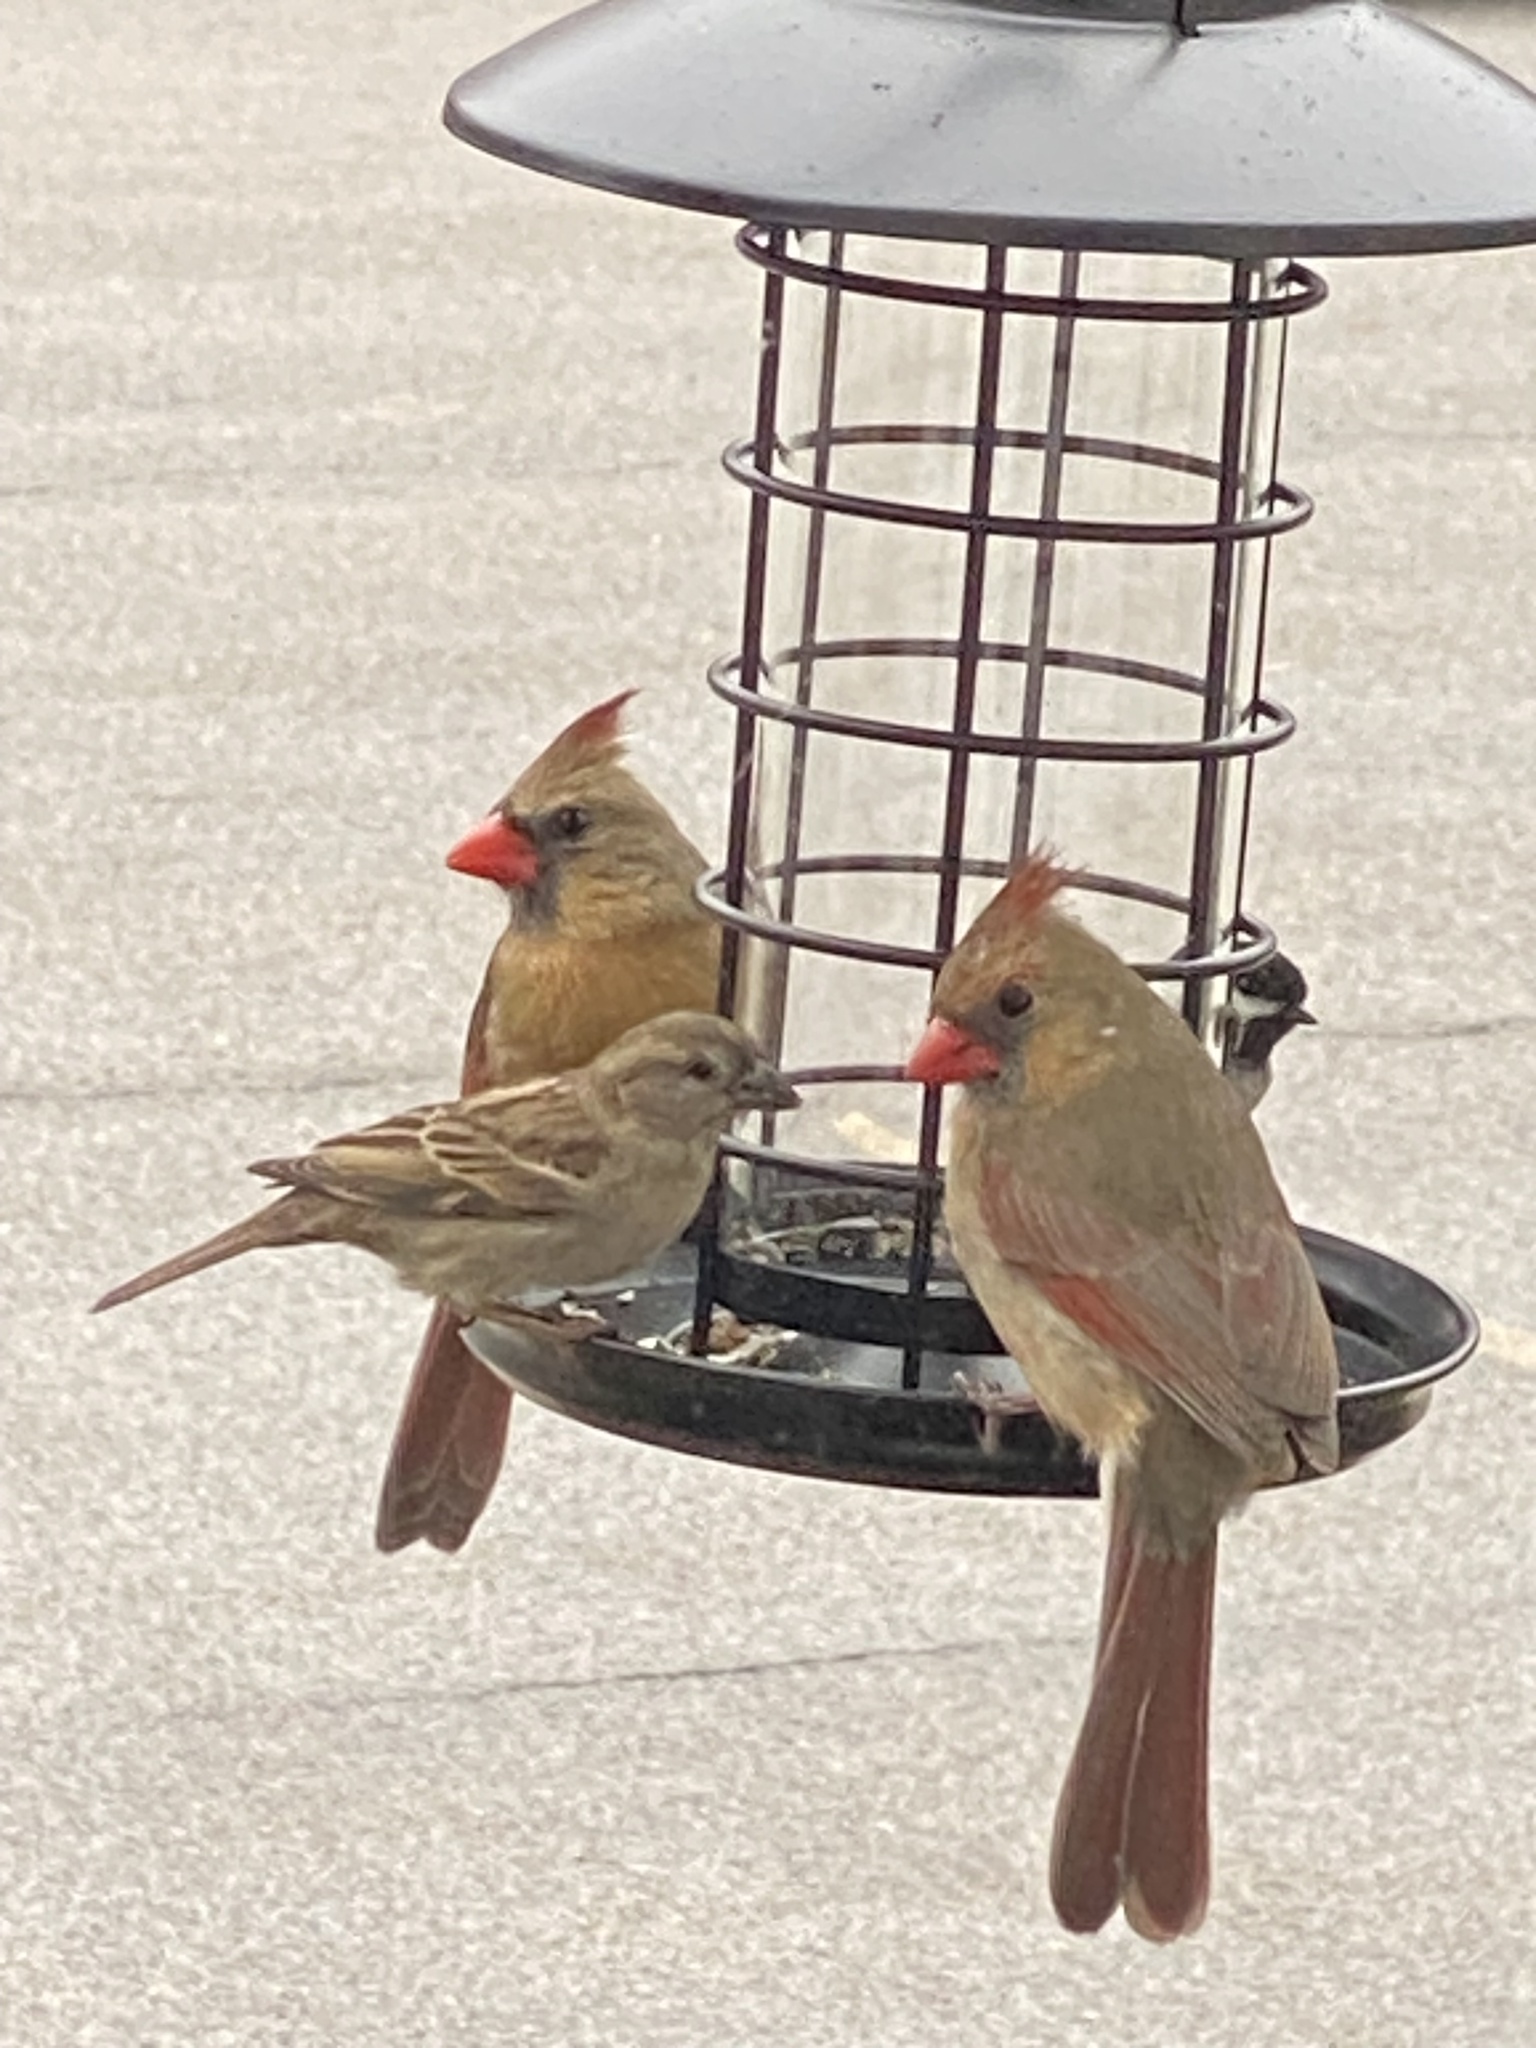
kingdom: Animalia
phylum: Chordata
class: Aves
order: Passeriformes
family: Cardinalidae
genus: Cardinalis
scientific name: Cardinalis cardinalis
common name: Northern cardinal
